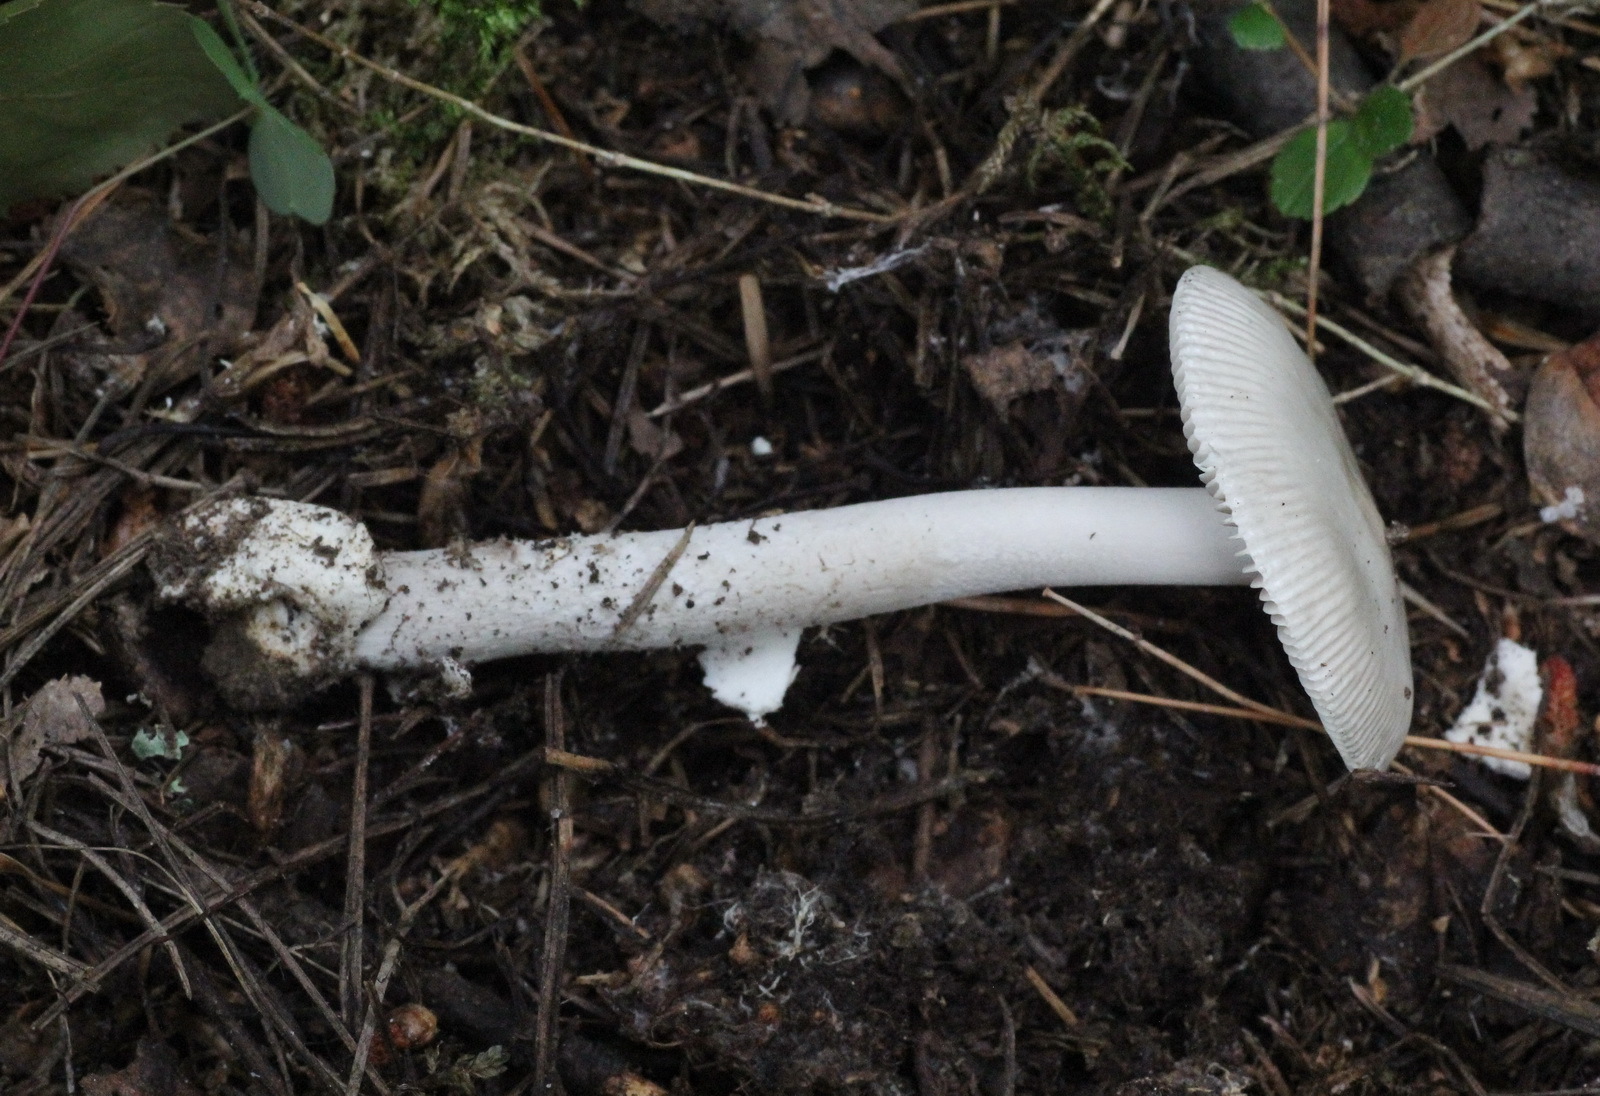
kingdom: Fungi
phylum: Basidiomycota
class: Agaricomycetes
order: Agaricales
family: Amanitaceae
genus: Amanita
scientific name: Amanita vaginata
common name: Grisette
